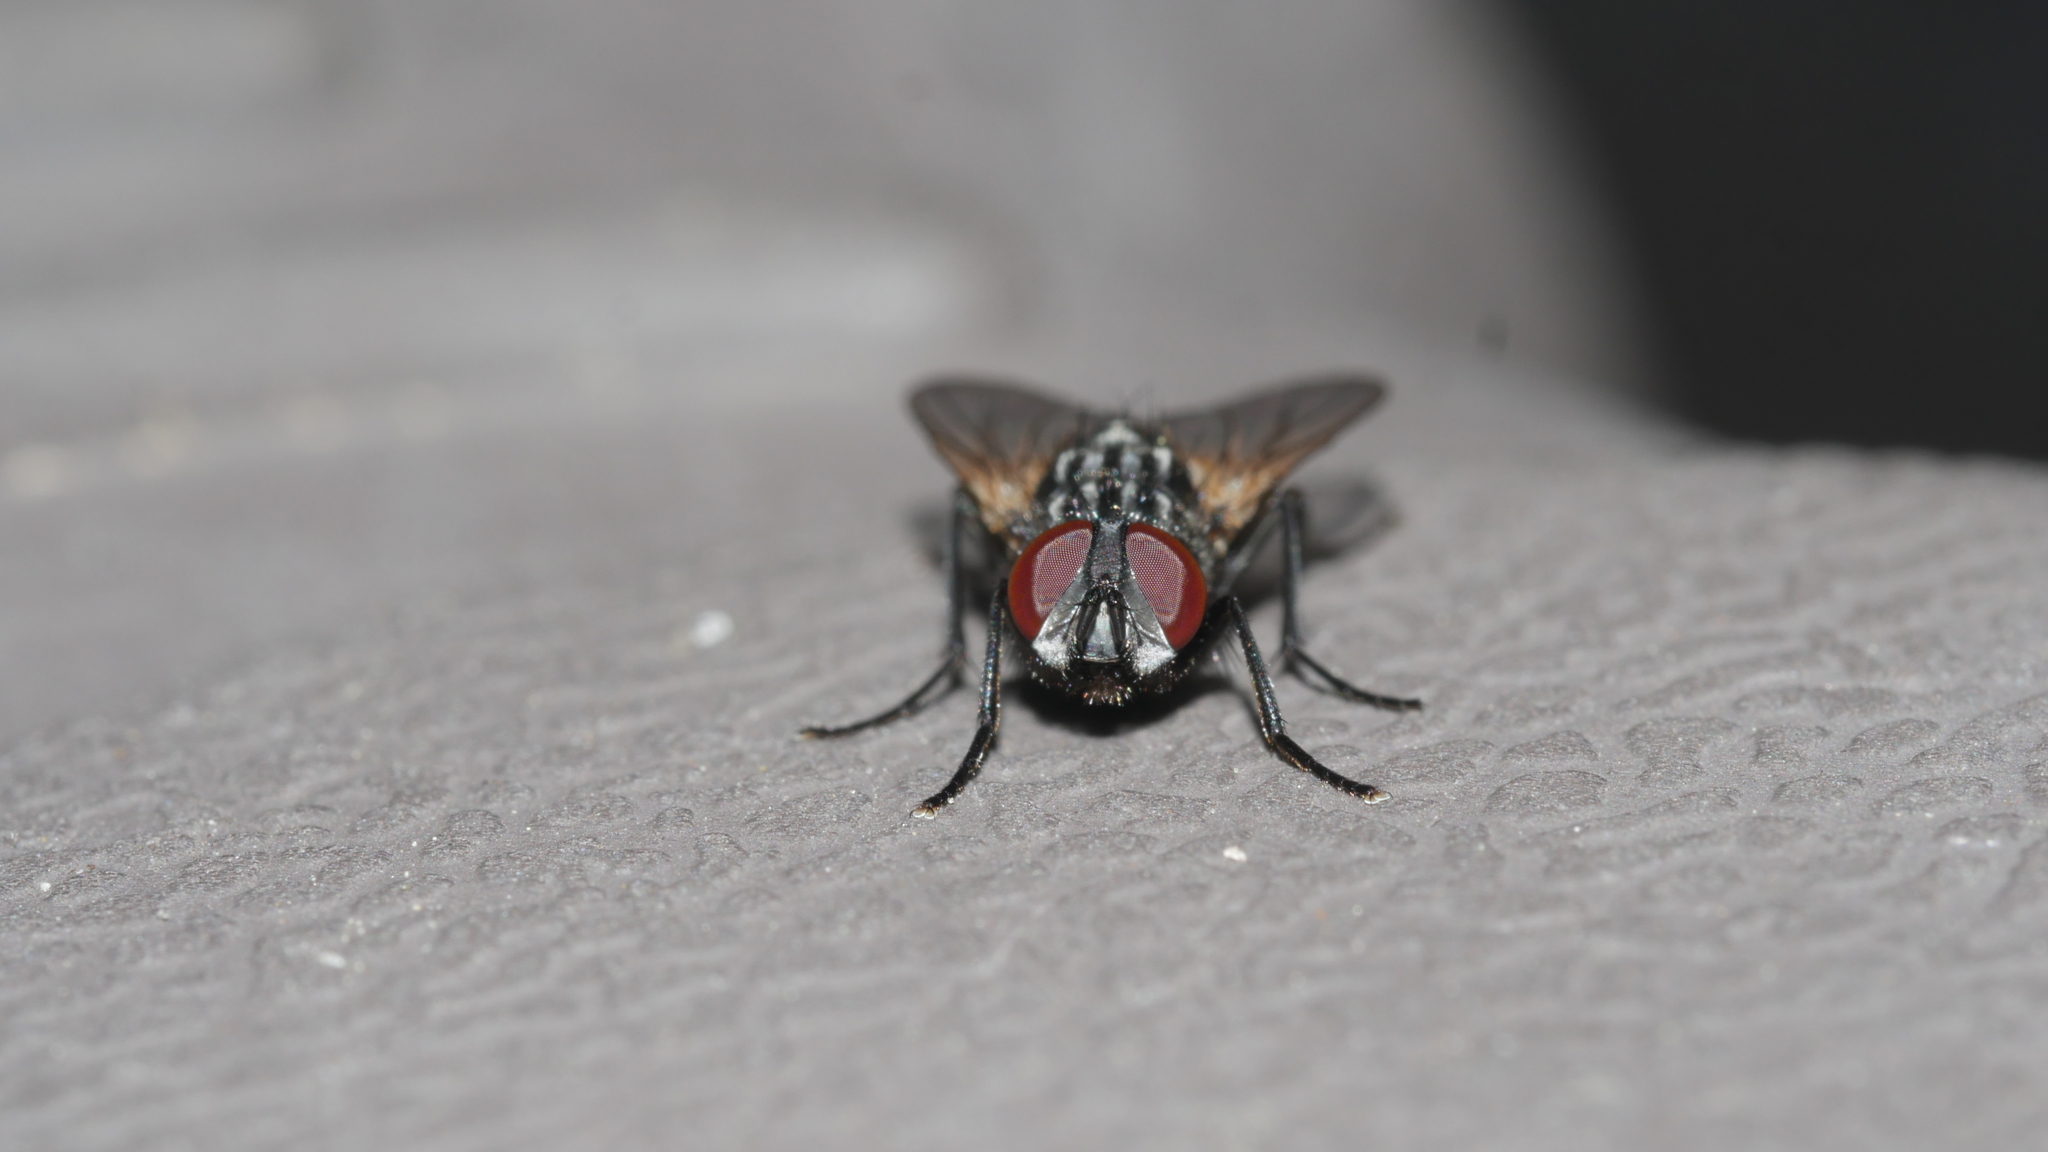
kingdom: Animalia
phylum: Arthropoda
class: Insecta
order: Diptera
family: Muscidae
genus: Musca
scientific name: Musca domestica
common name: House fly
